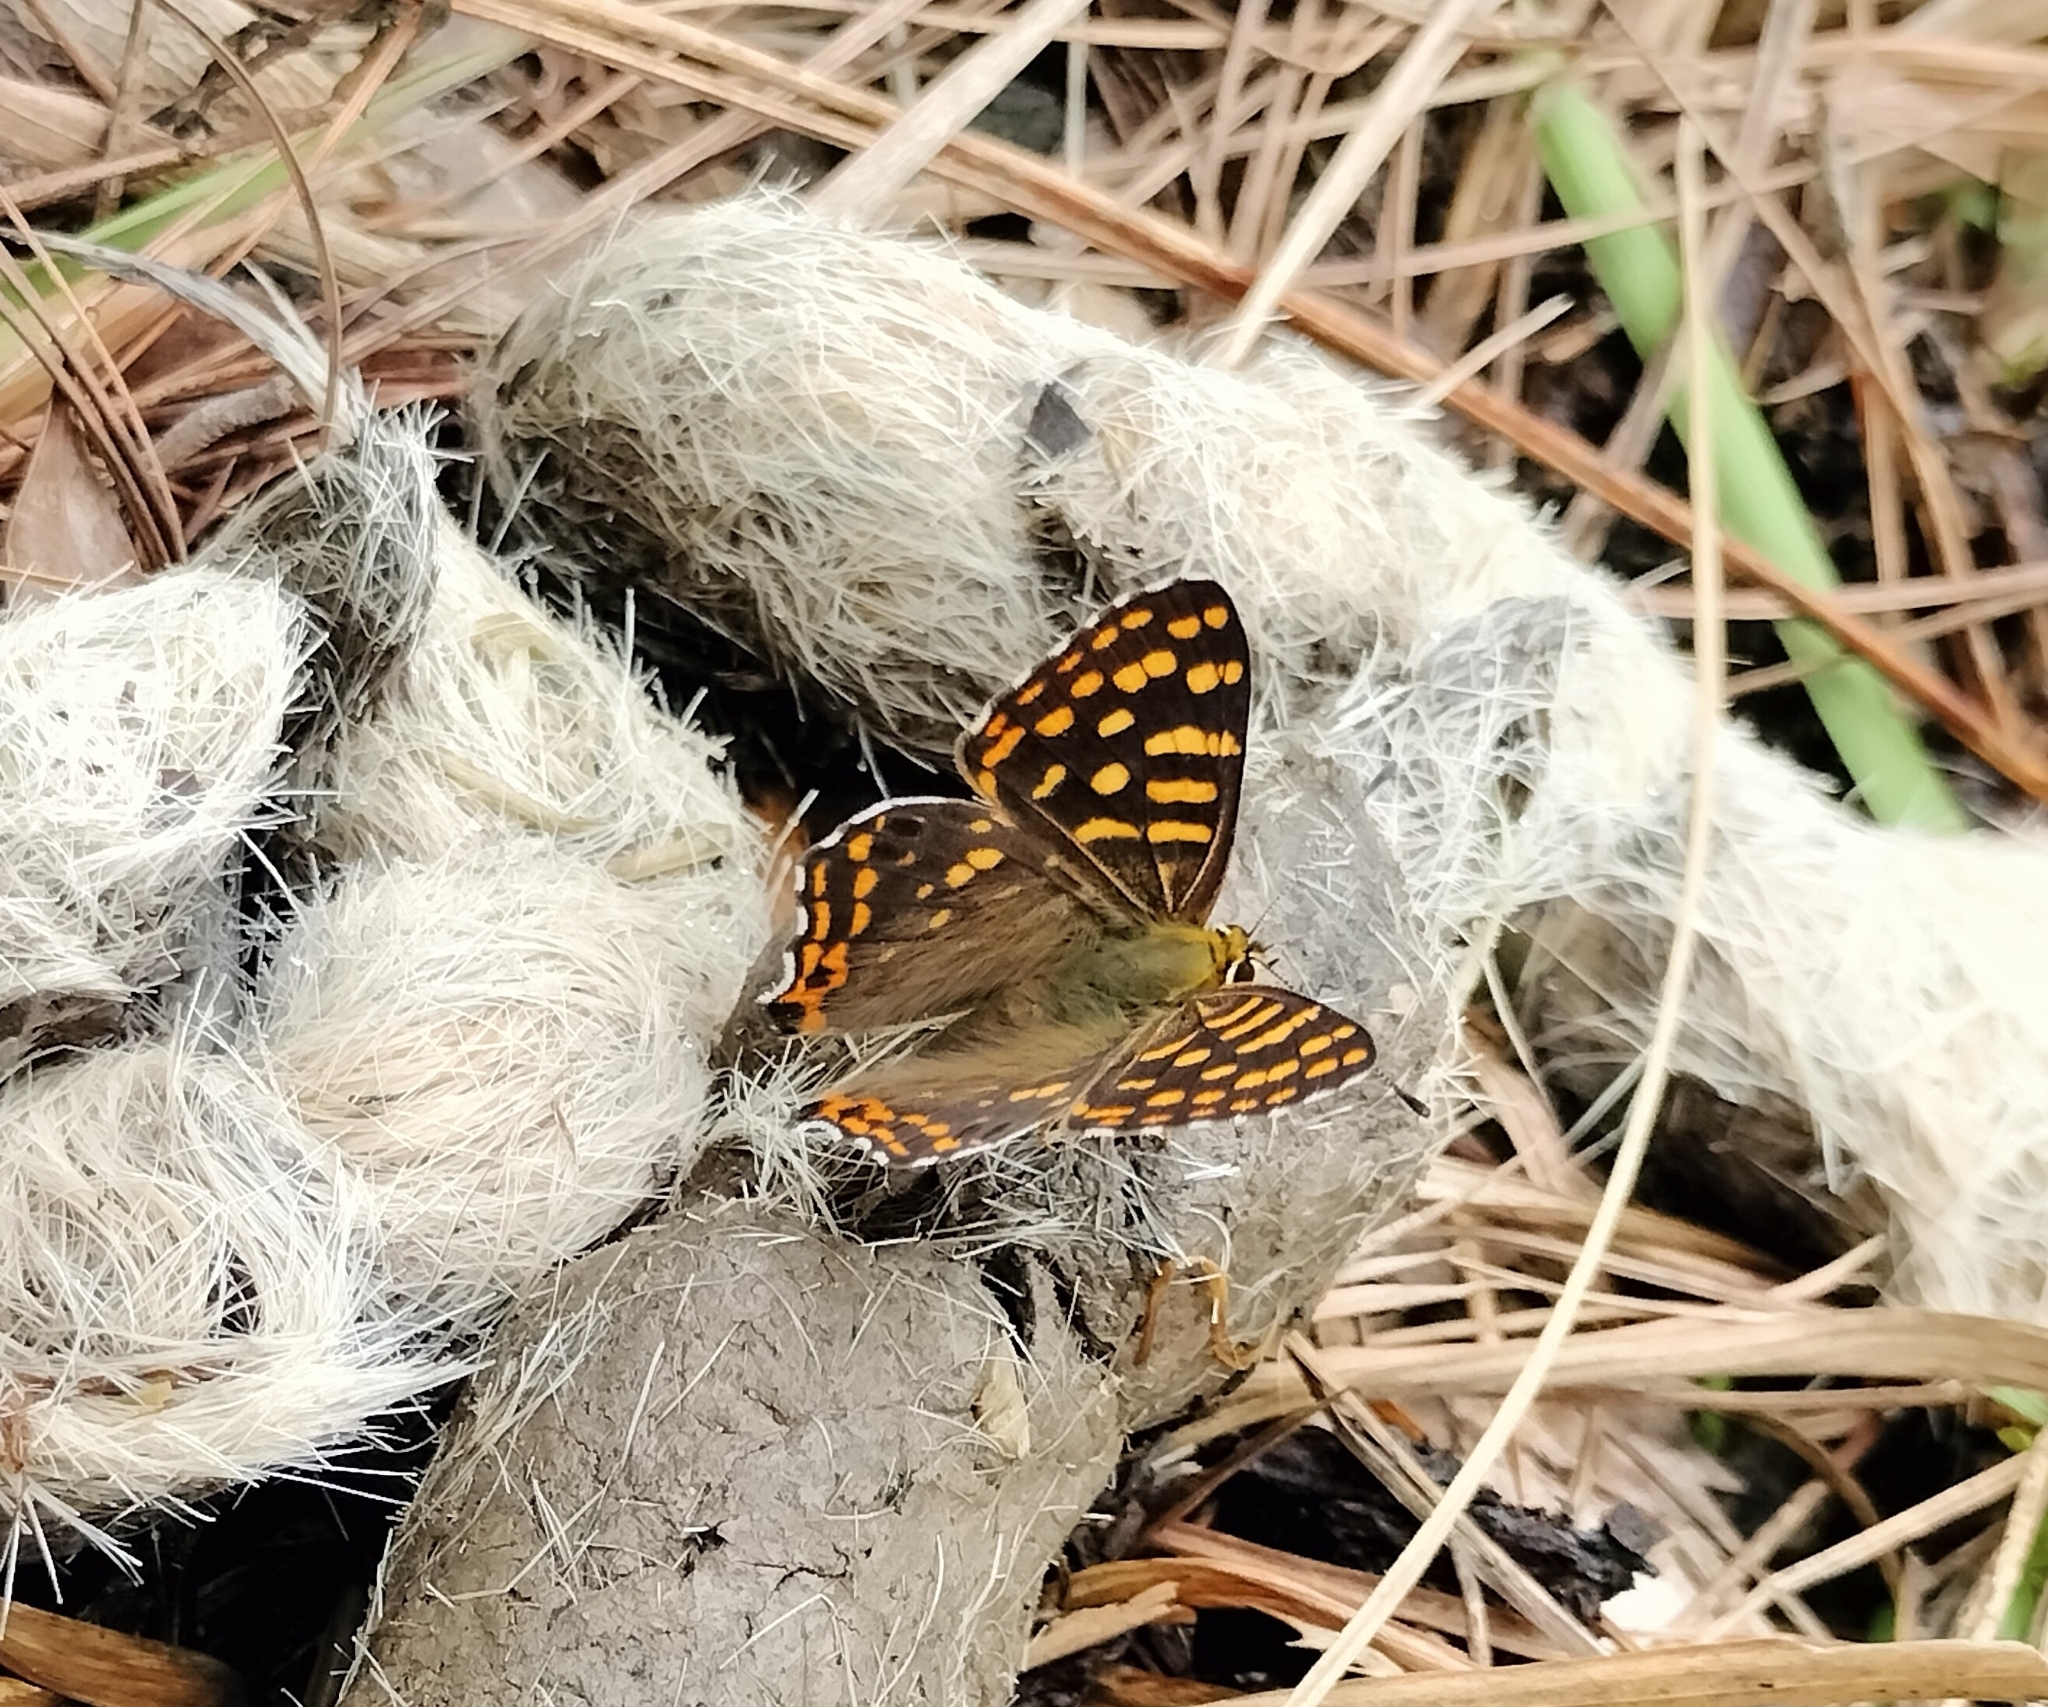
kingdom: Animalia
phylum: Arthropoda
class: Insecta
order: Lepidoptera
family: Lycaenidae
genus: Dodona
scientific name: Dodona durga
